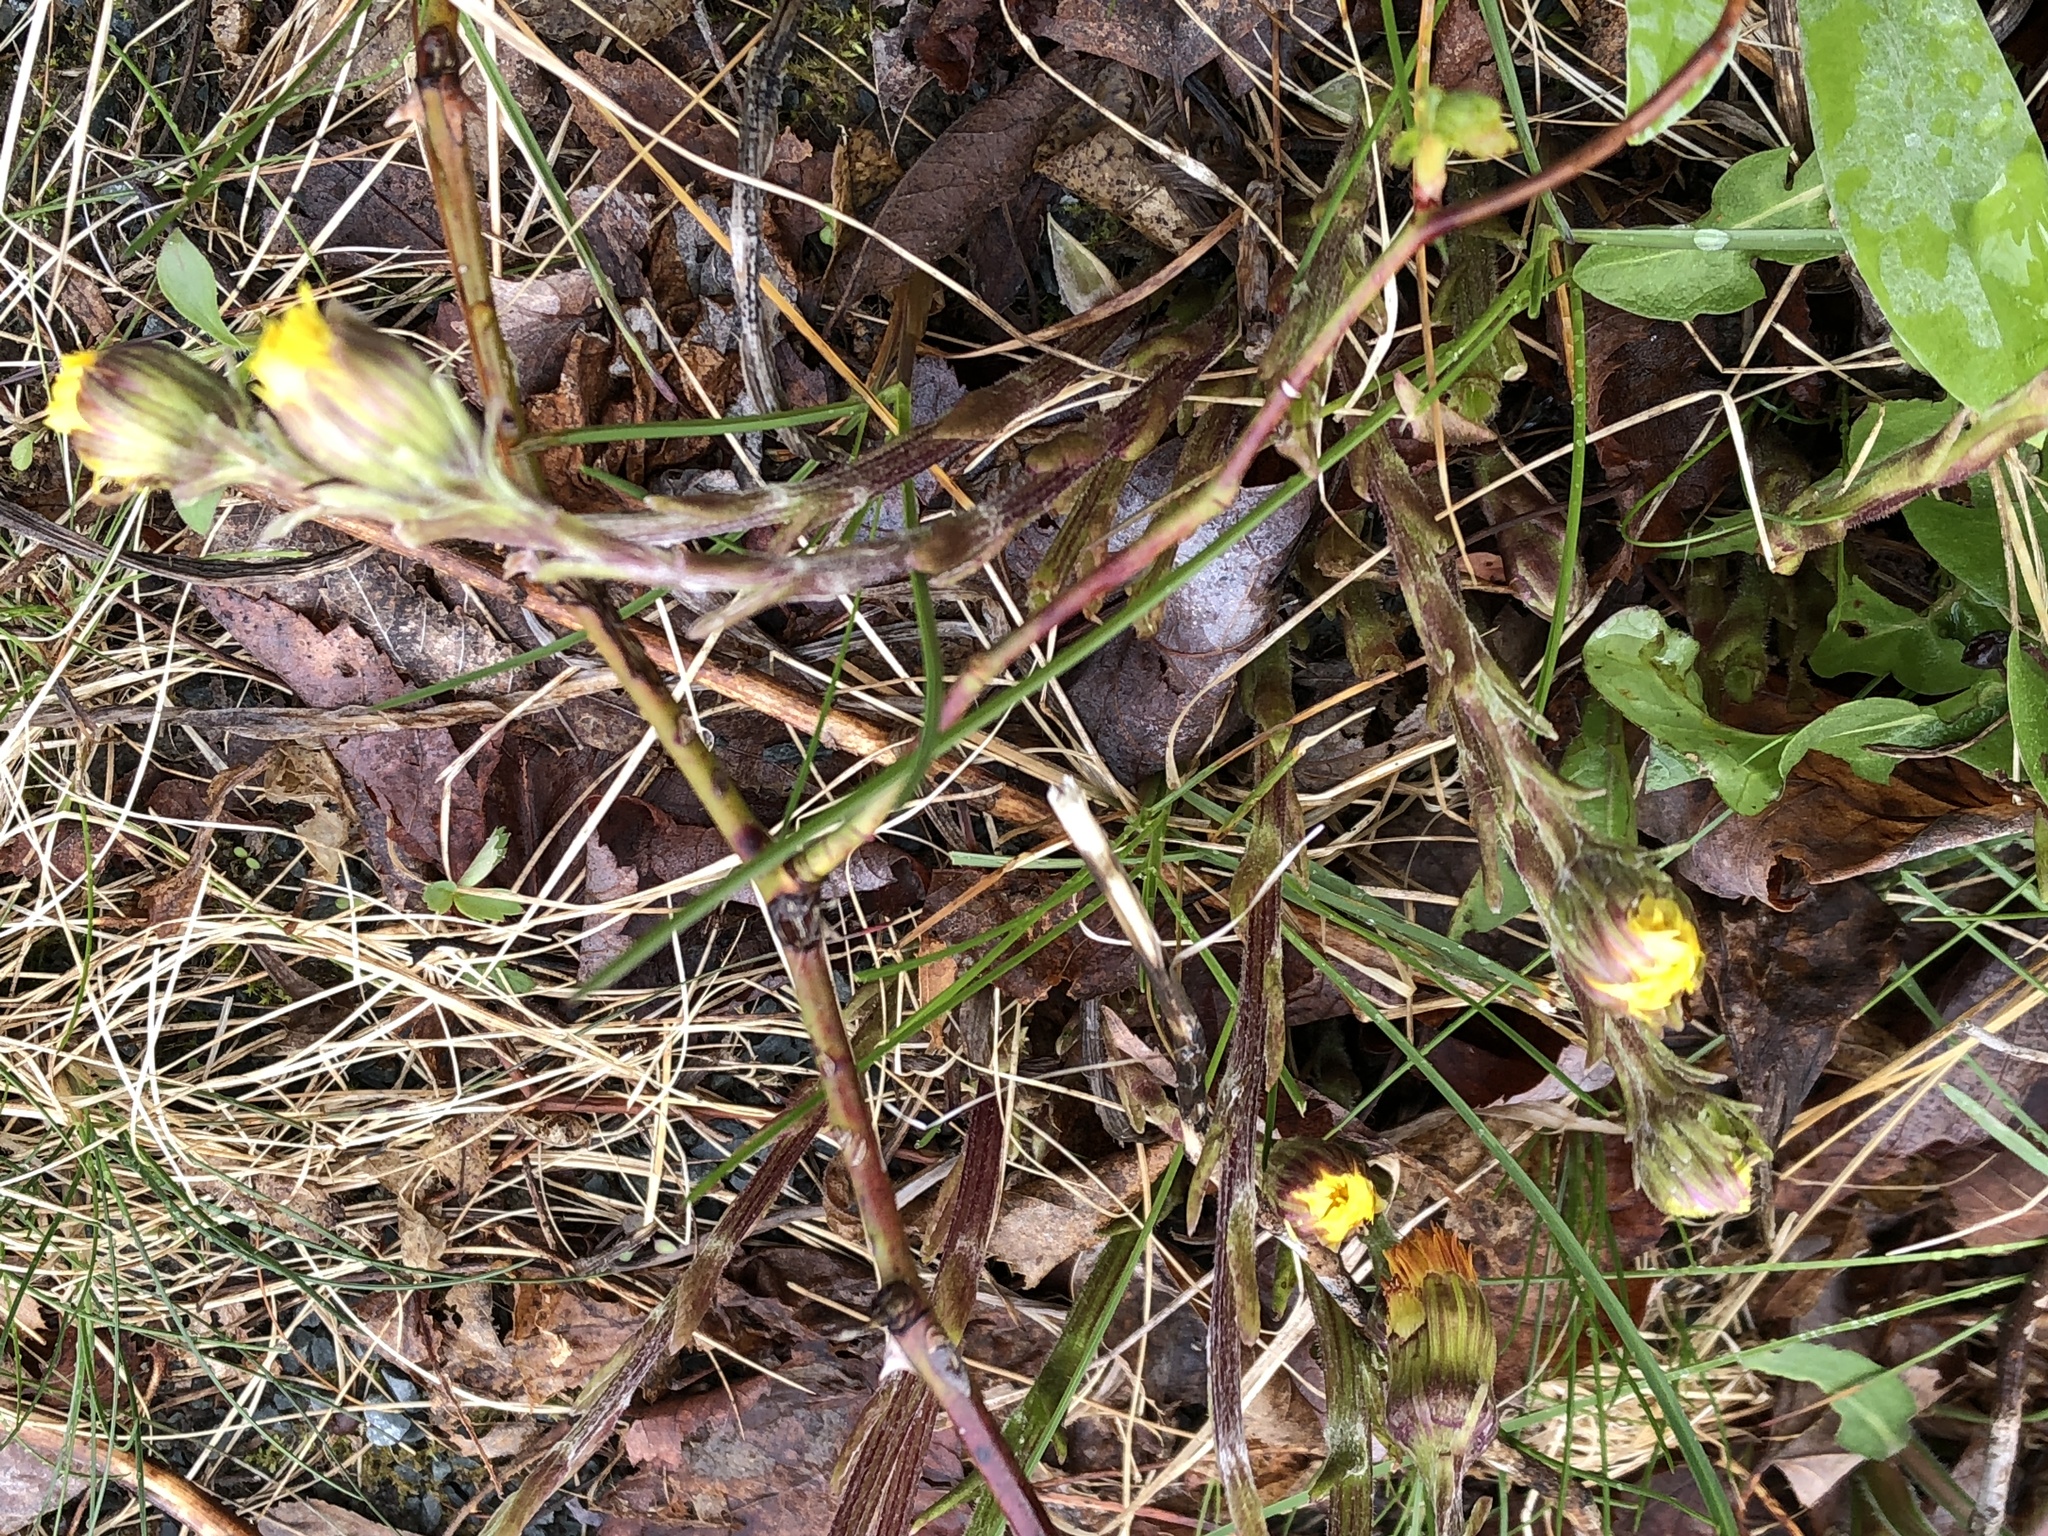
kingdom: Plantae
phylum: Tracheophyta
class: Magnoliopsida
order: Asterales
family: Asteraceae
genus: Tussilago
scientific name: Tussilago farfara
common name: Coltsfoot
